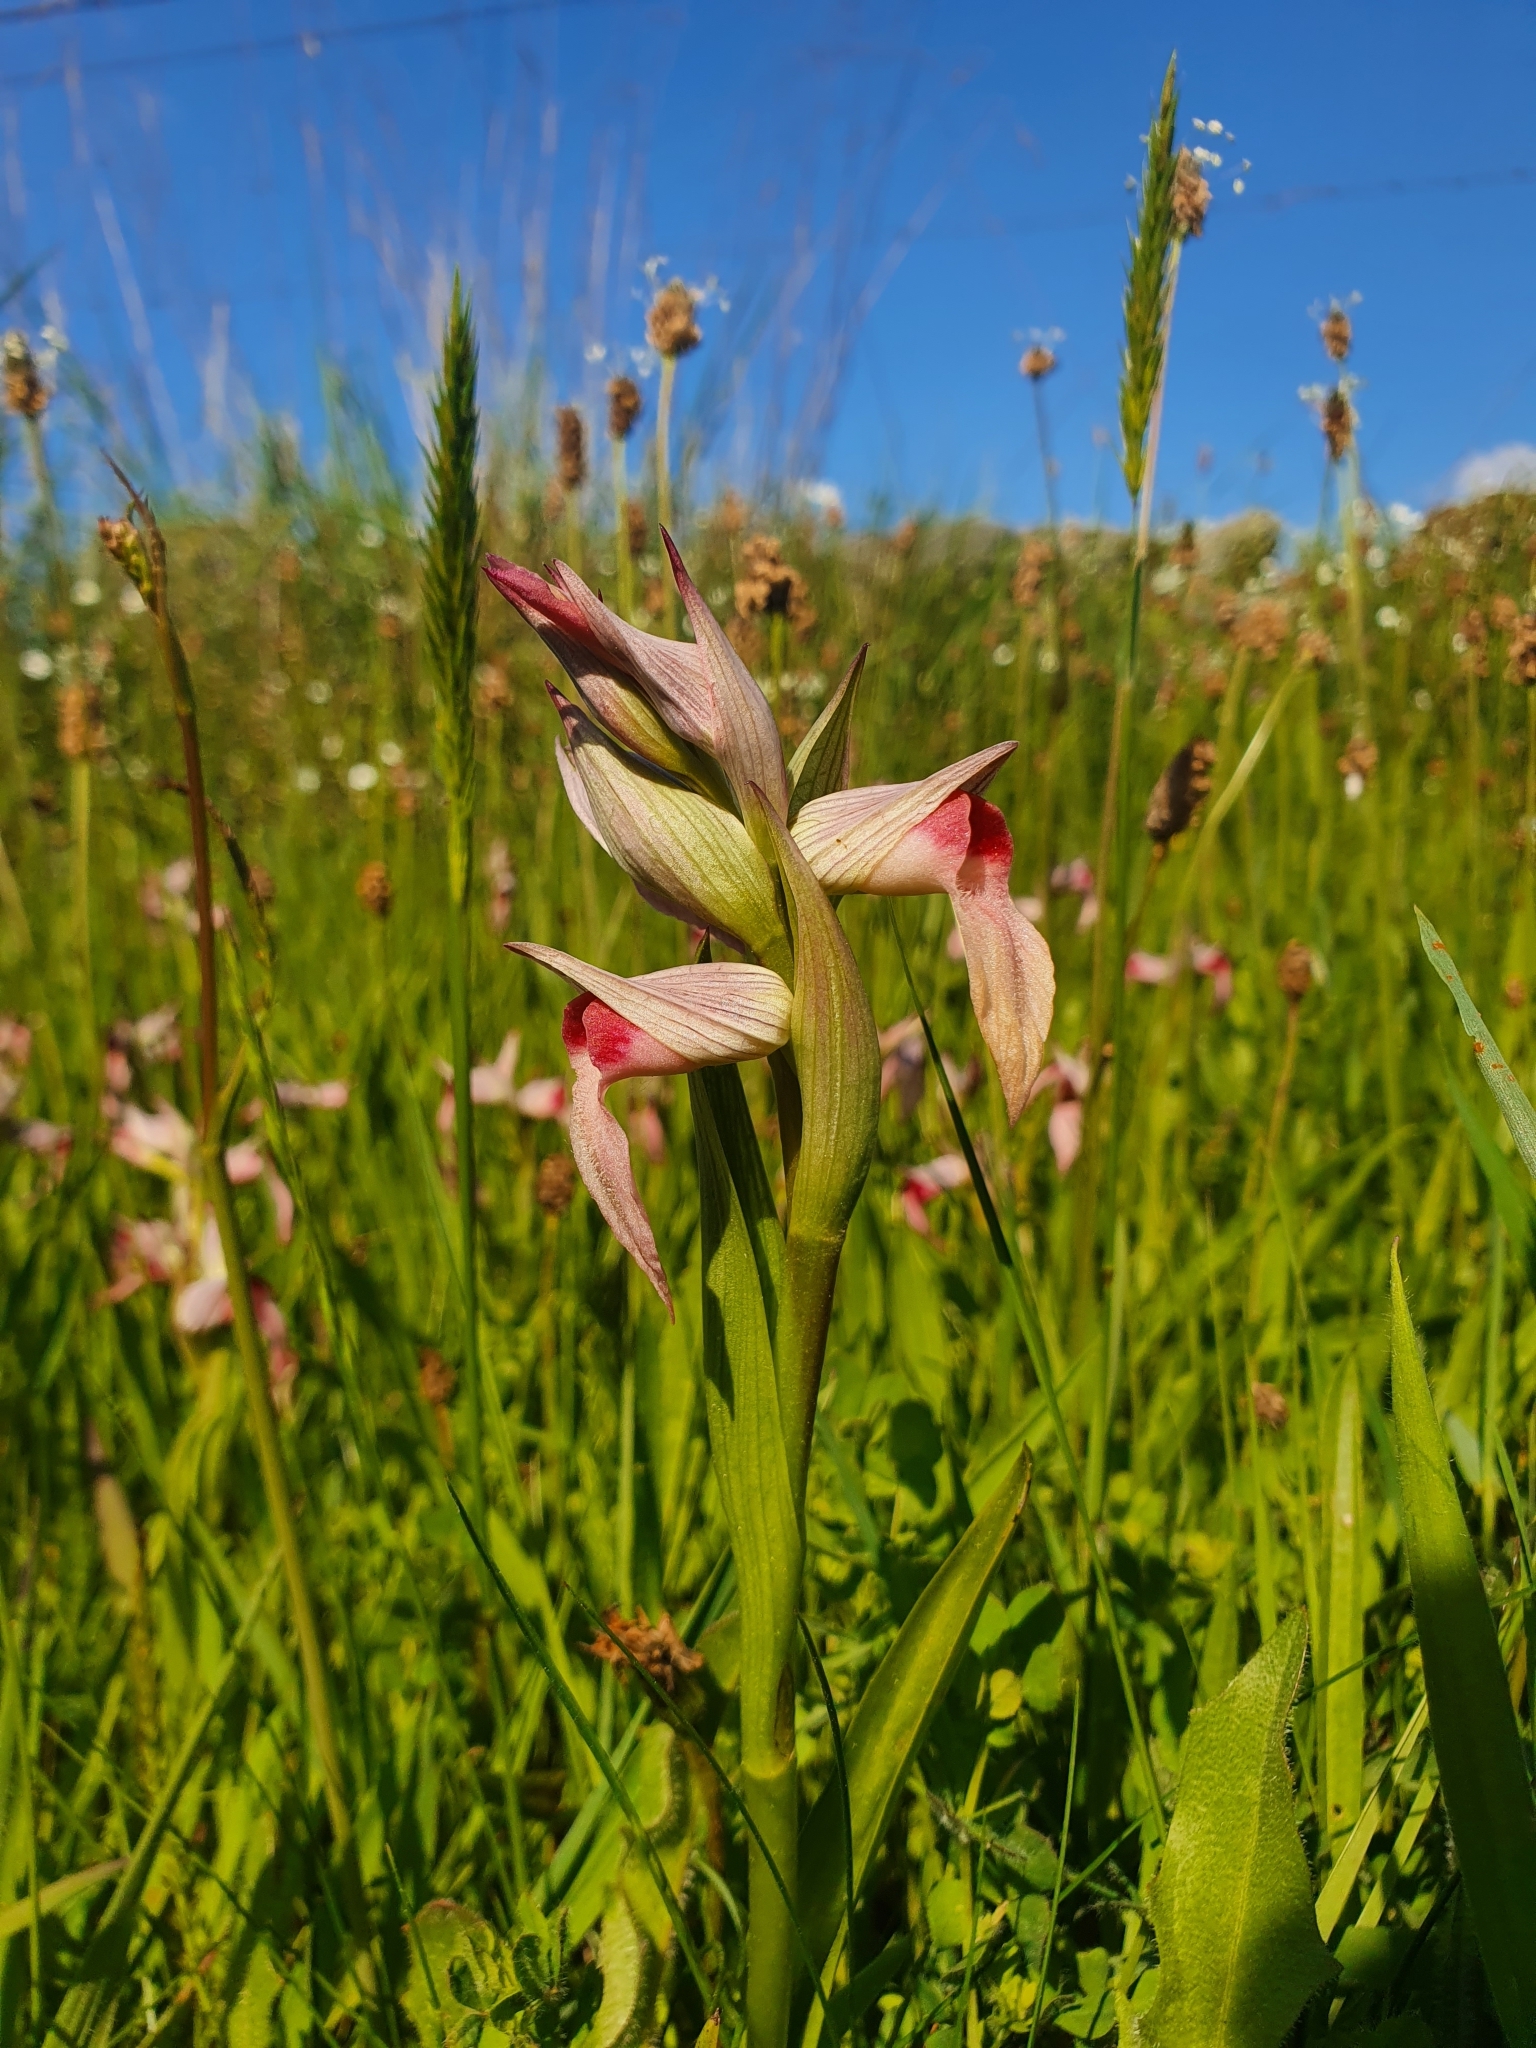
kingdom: Plantae
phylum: Tracheophyta
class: Liliopsida
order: Asparagales
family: Orchidaceae
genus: Serapias
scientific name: Serapias lingua
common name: Tongue-orchid
